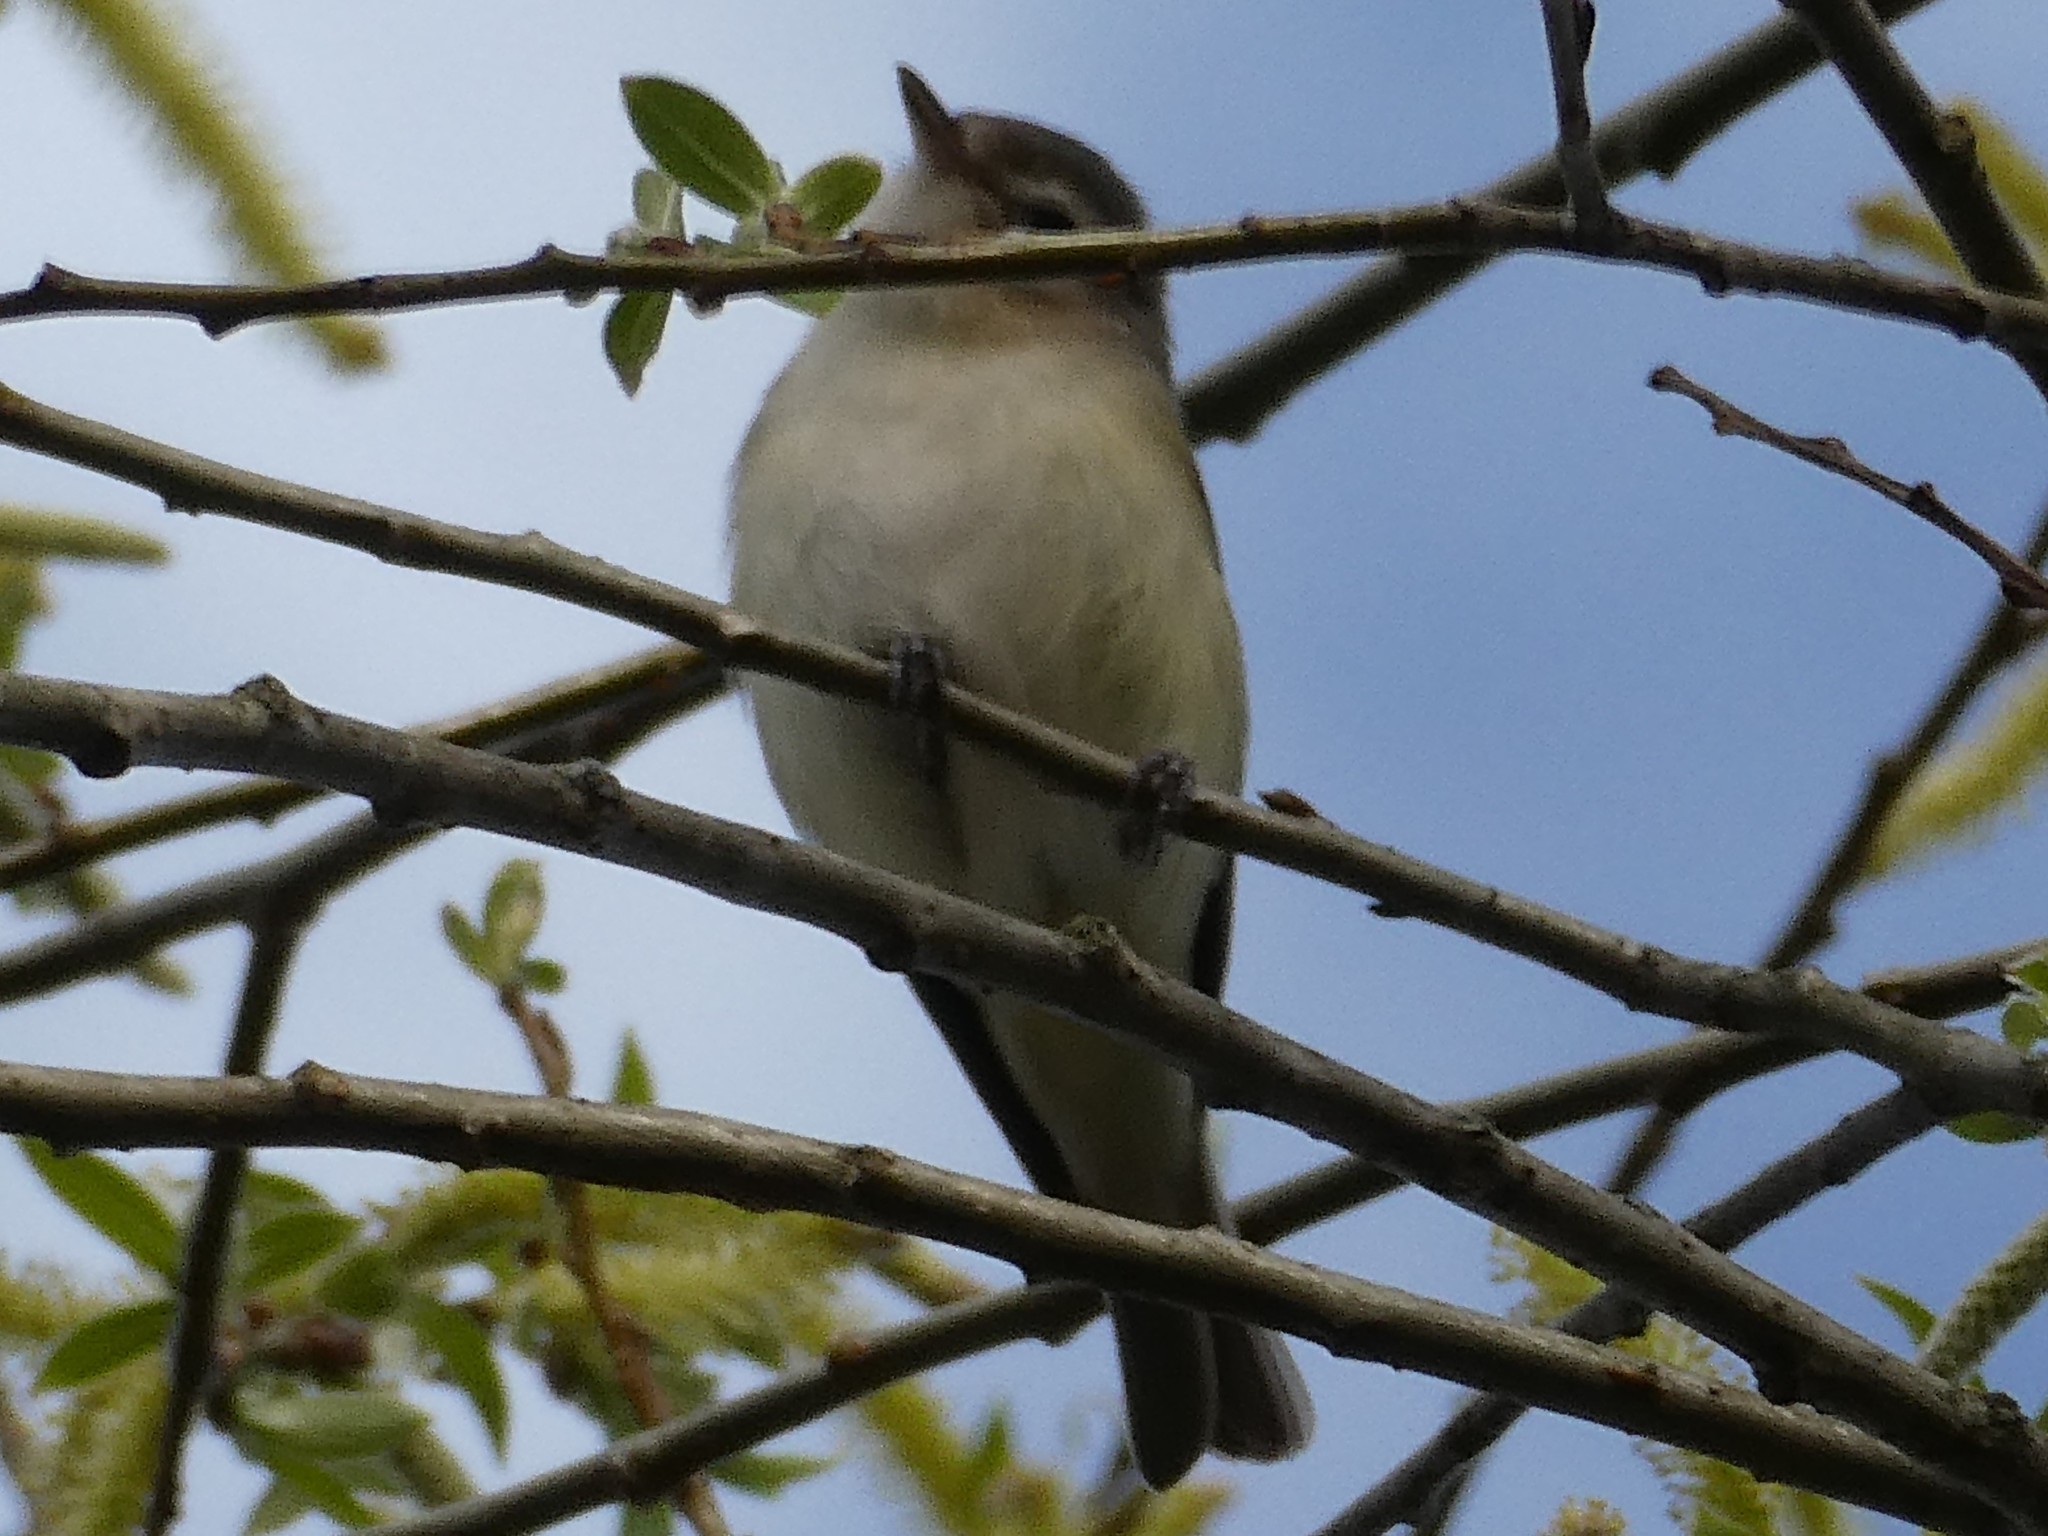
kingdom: Animalia
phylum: Chordata
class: Aves
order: Passeriformes
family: Vireonidae
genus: Vireo
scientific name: Vireo gilvus
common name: Warbling vireo
